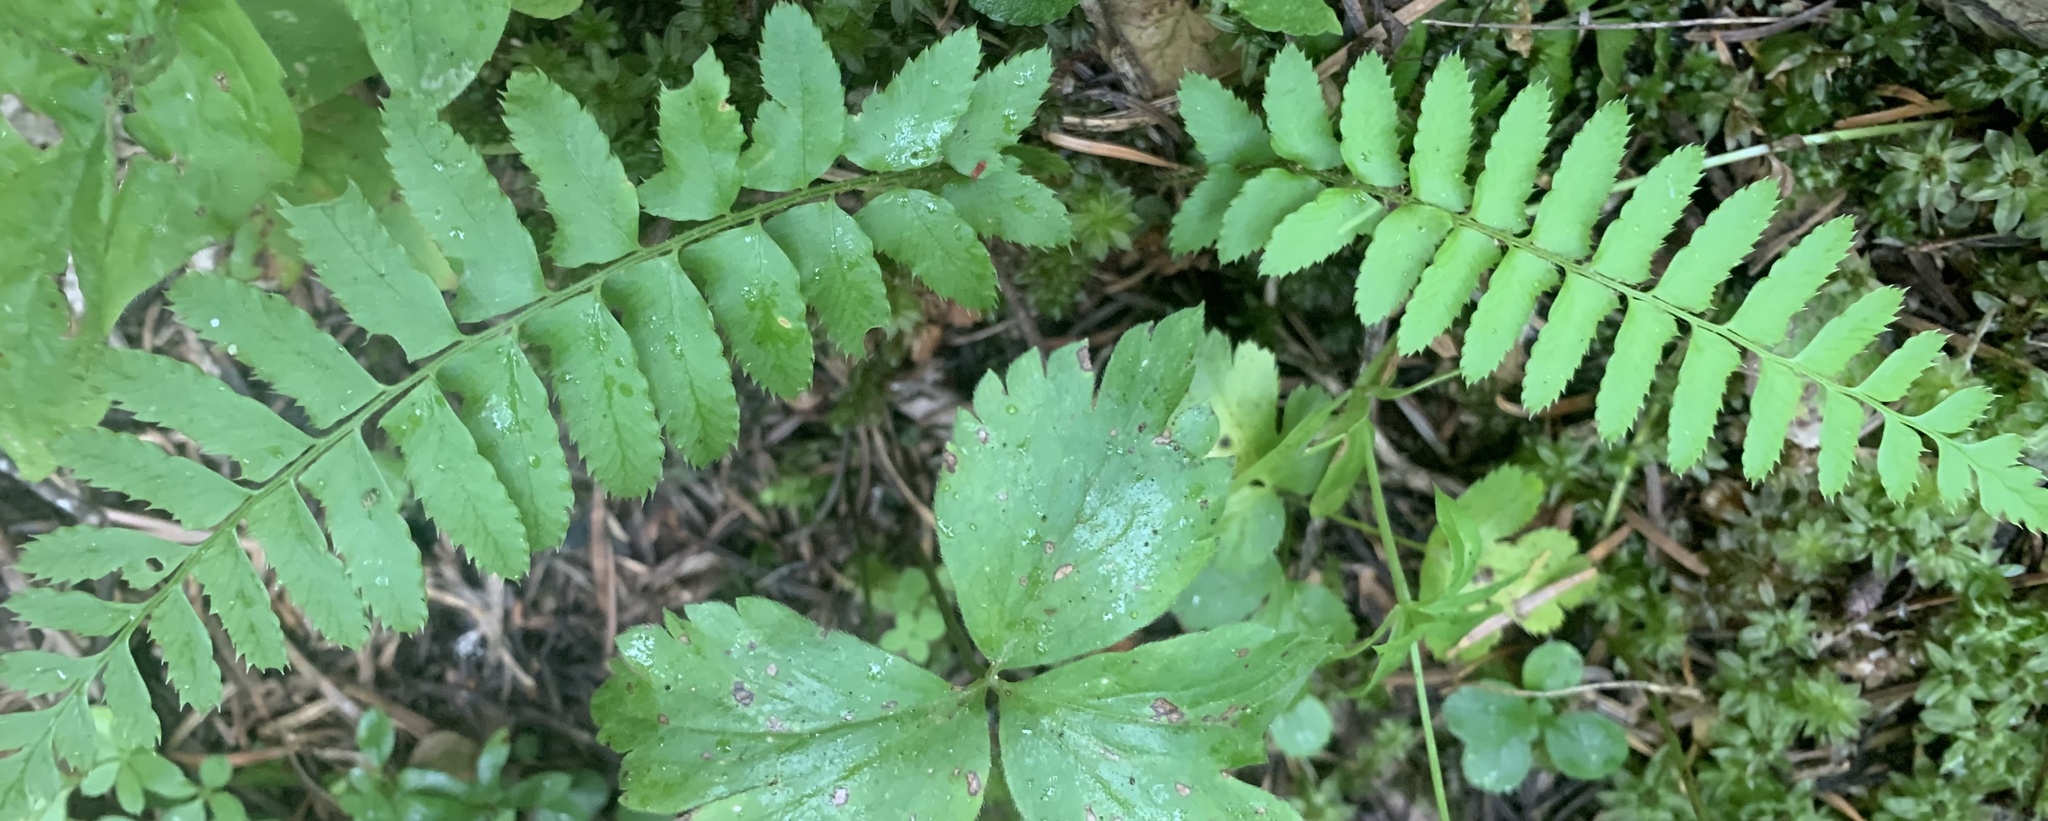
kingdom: Plantae
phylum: Tracheophyta
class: Polypodiopsida
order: Polypodiales
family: Dryopteridaceae
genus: Polystichum
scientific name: Polystichum munitum
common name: Western sword-fern
